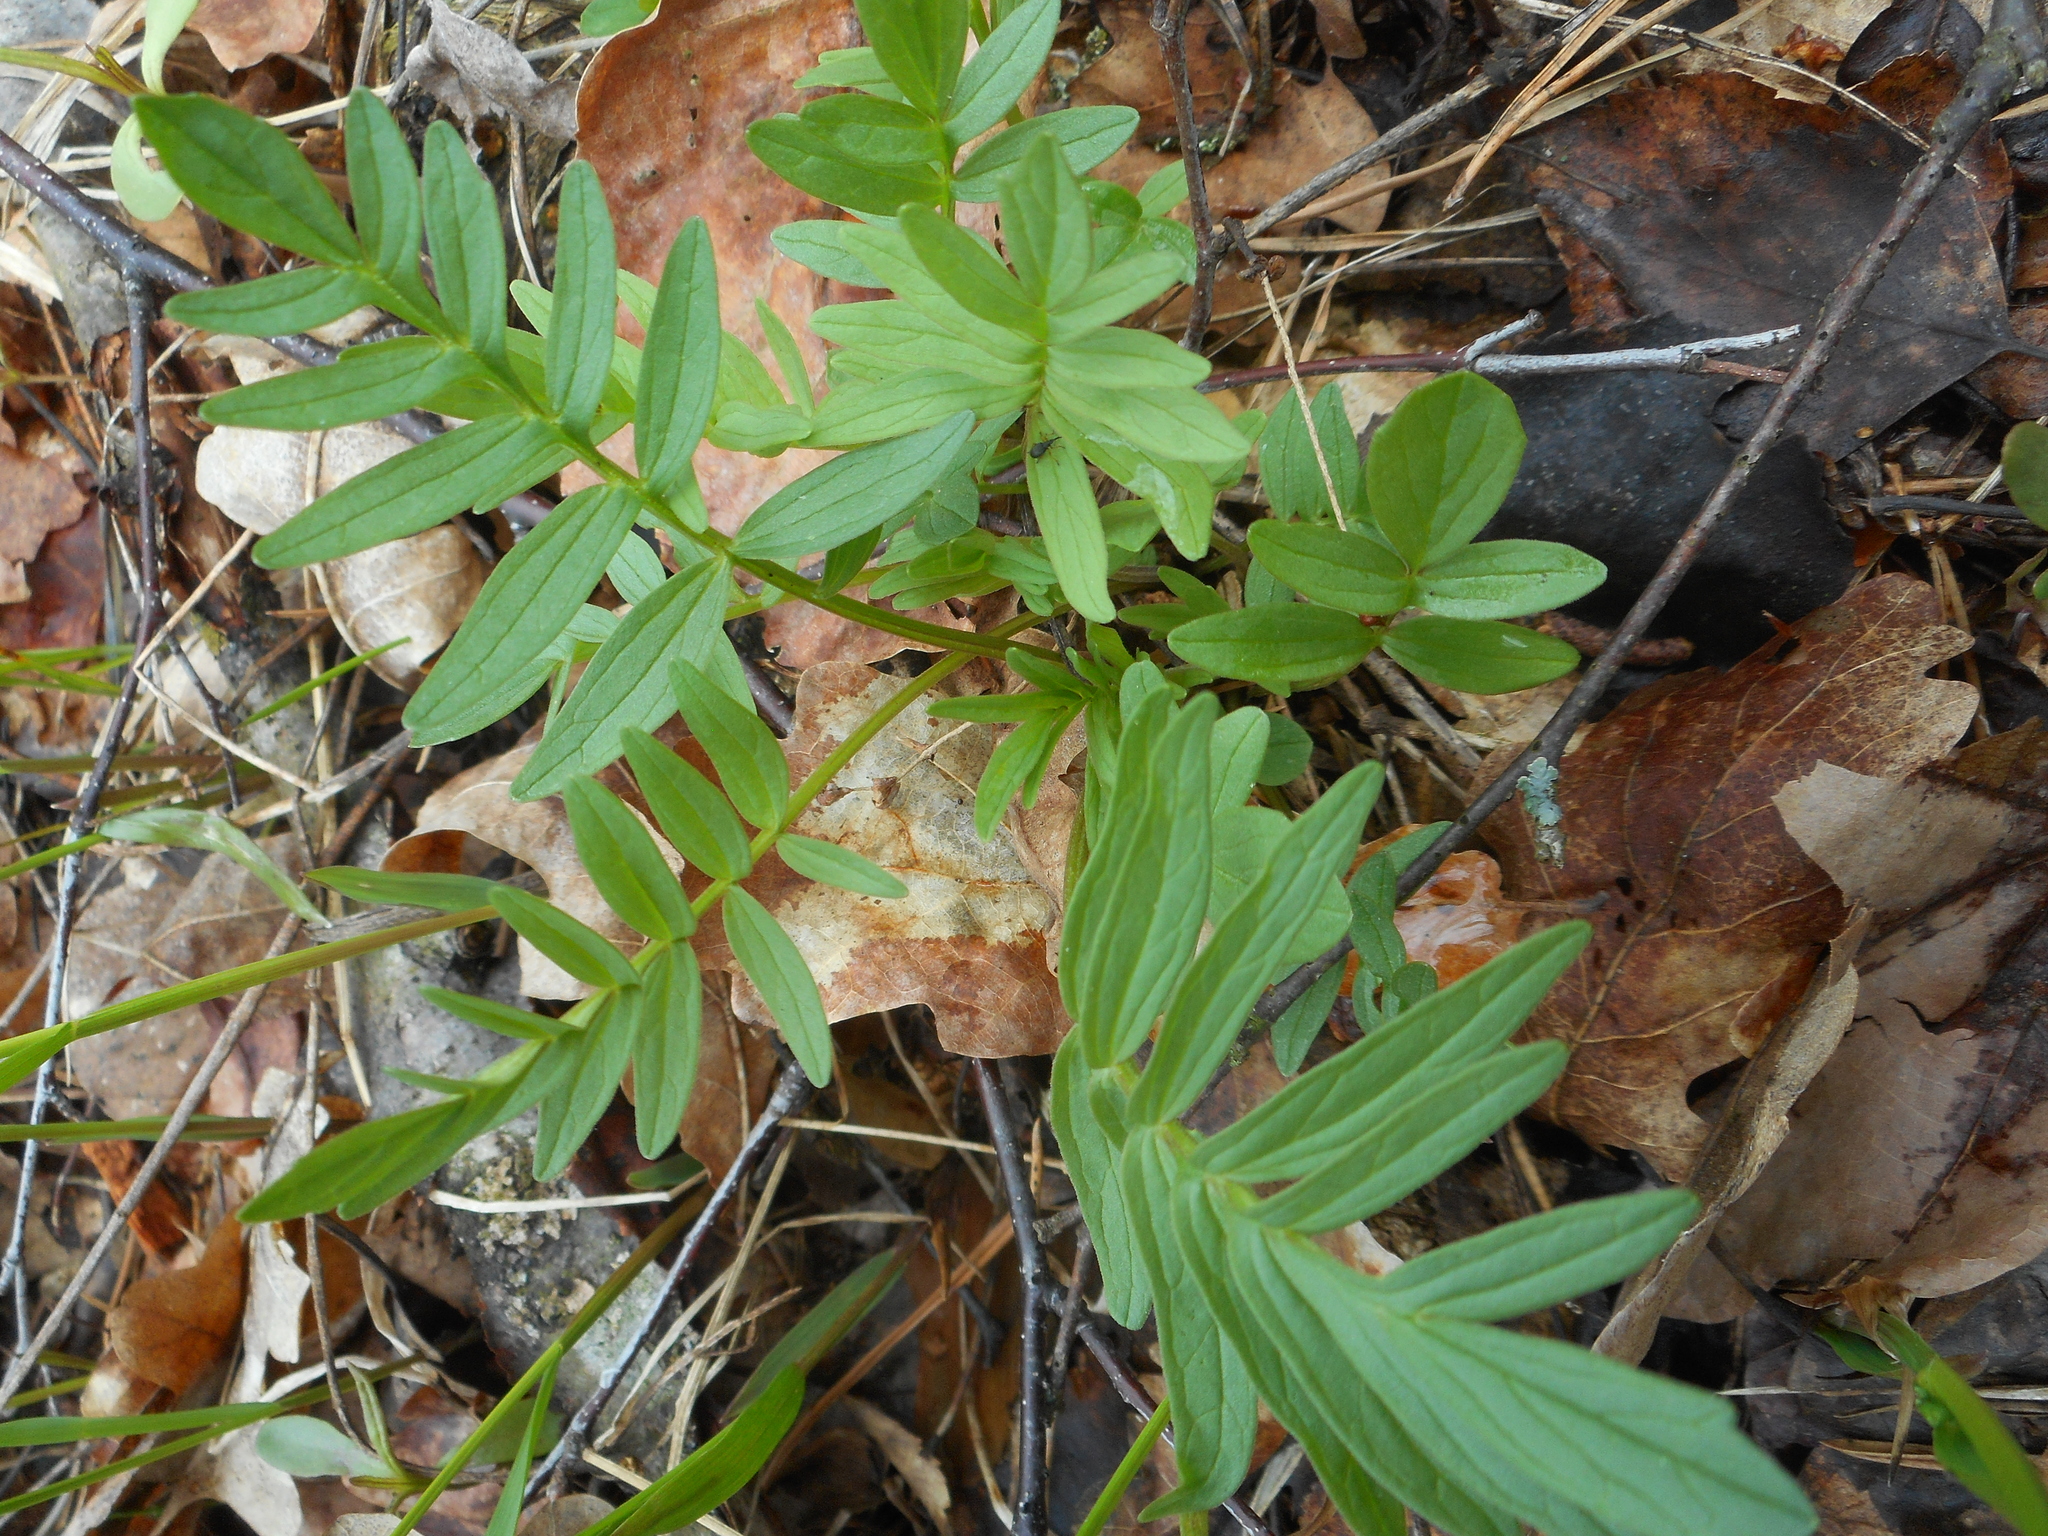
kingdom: Plantae
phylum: Tracheophyta
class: Magnoliopsida
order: Dipsacales
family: Caprifoliaceae
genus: Valeriana
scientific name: Valeriana officinalis
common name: Common valerian
